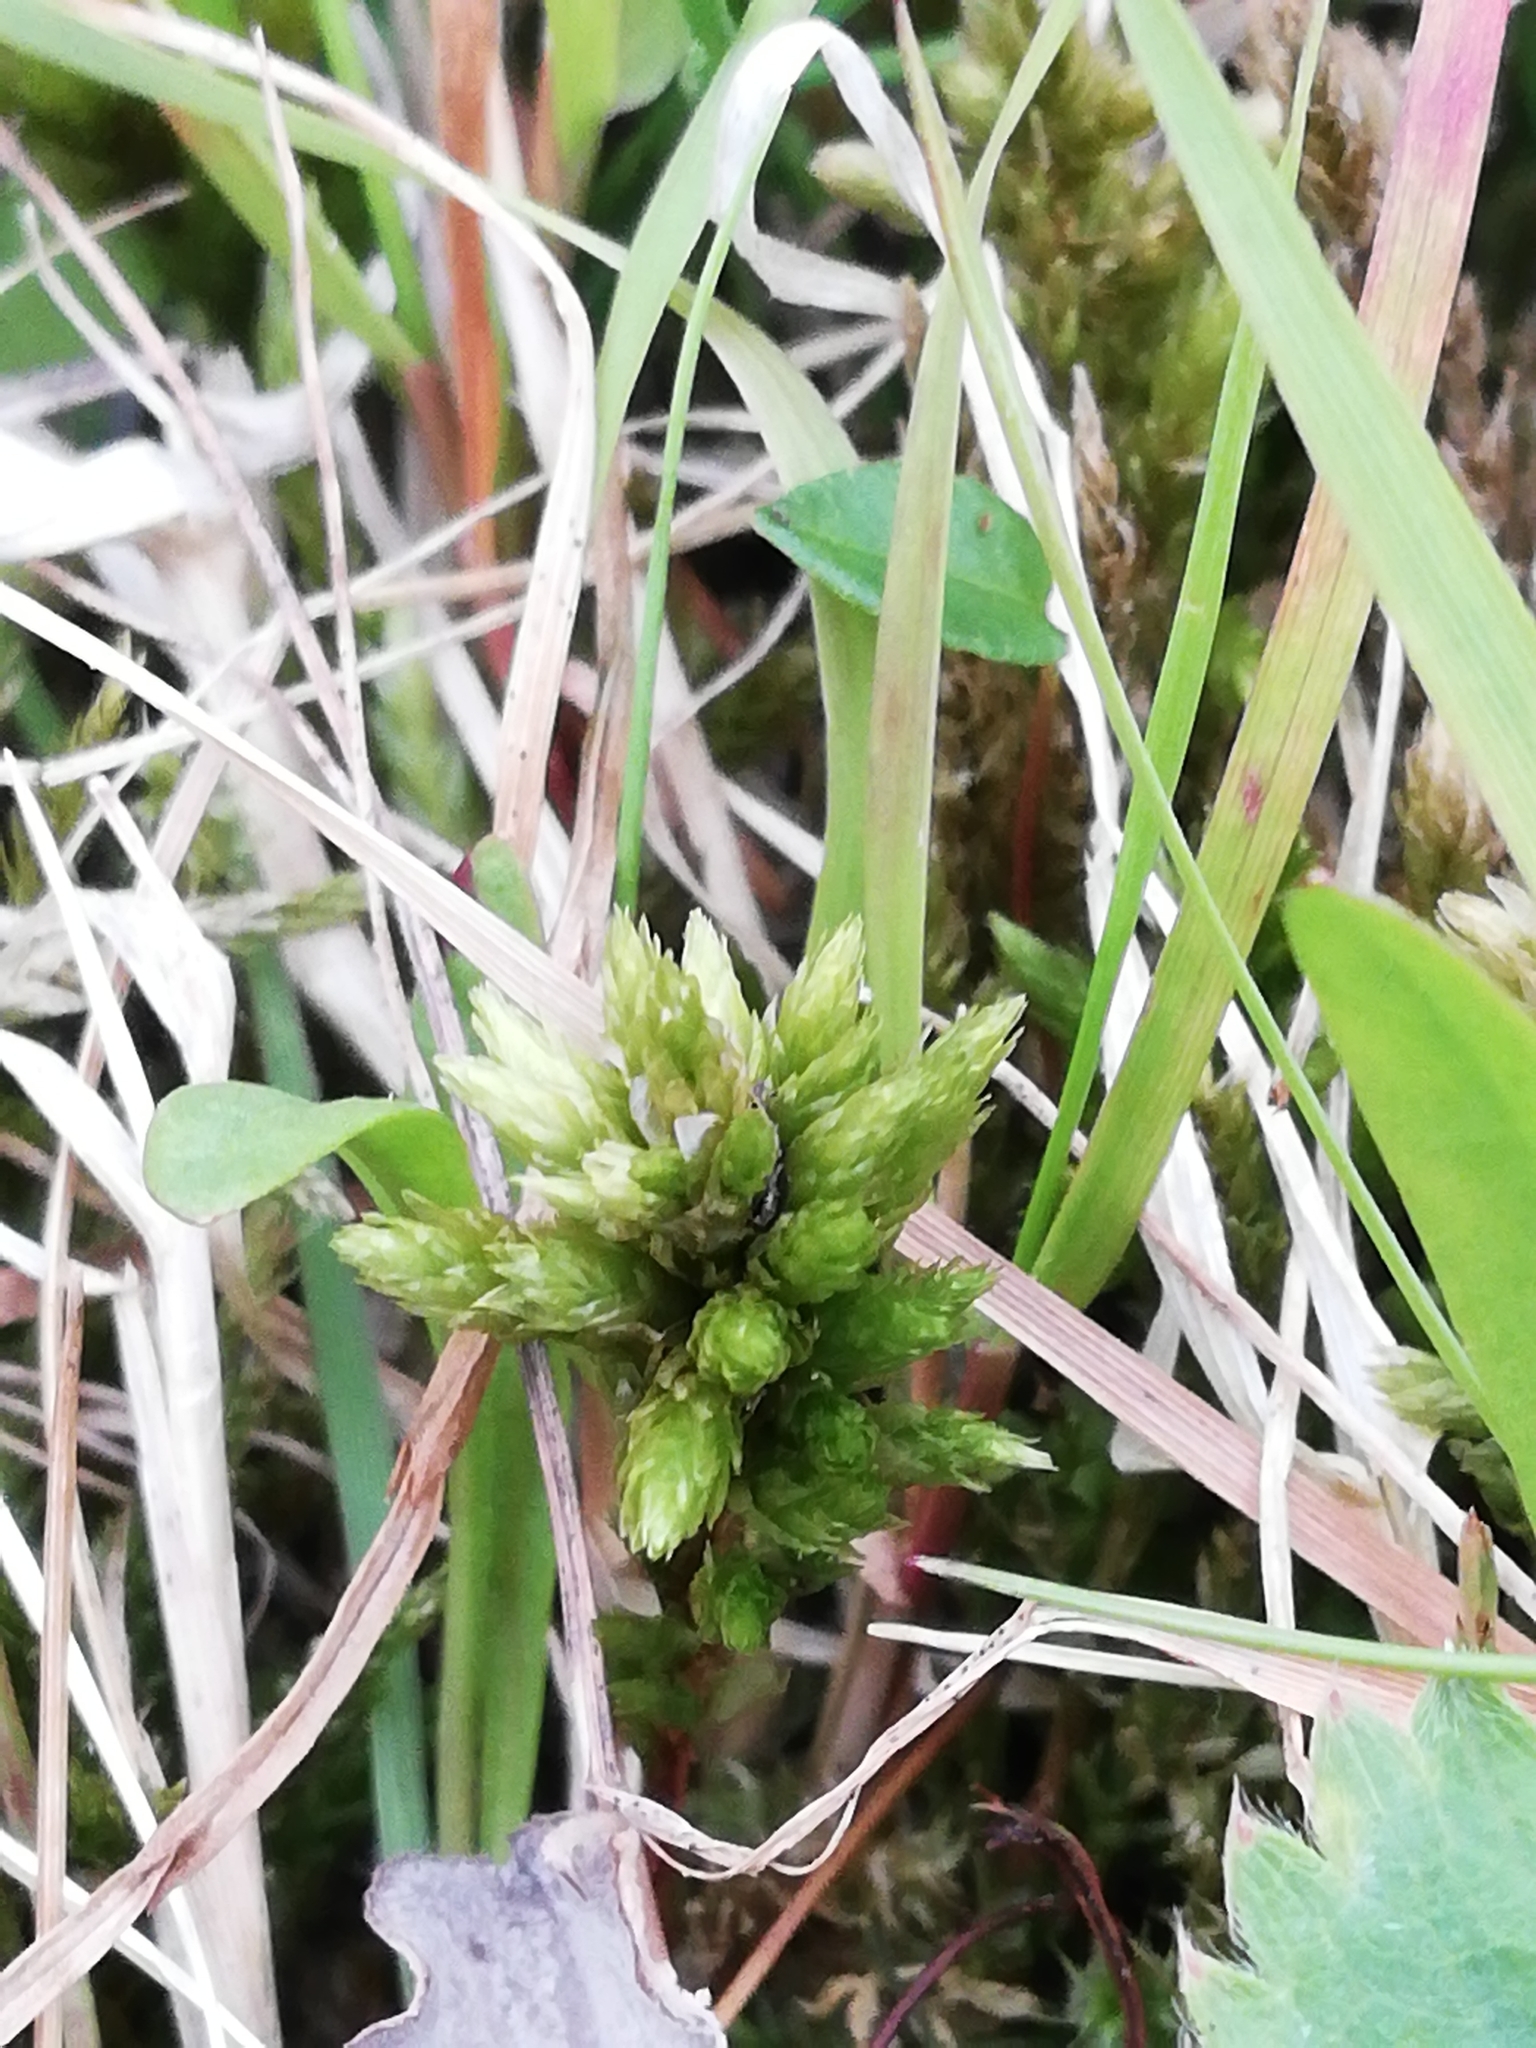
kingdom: Plantae
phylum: Bryophyta
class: Bryopsida
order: Hypnales
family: Climaciaceae
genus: Climacium
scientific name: Climacium dendroides
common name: Northern tree moss
